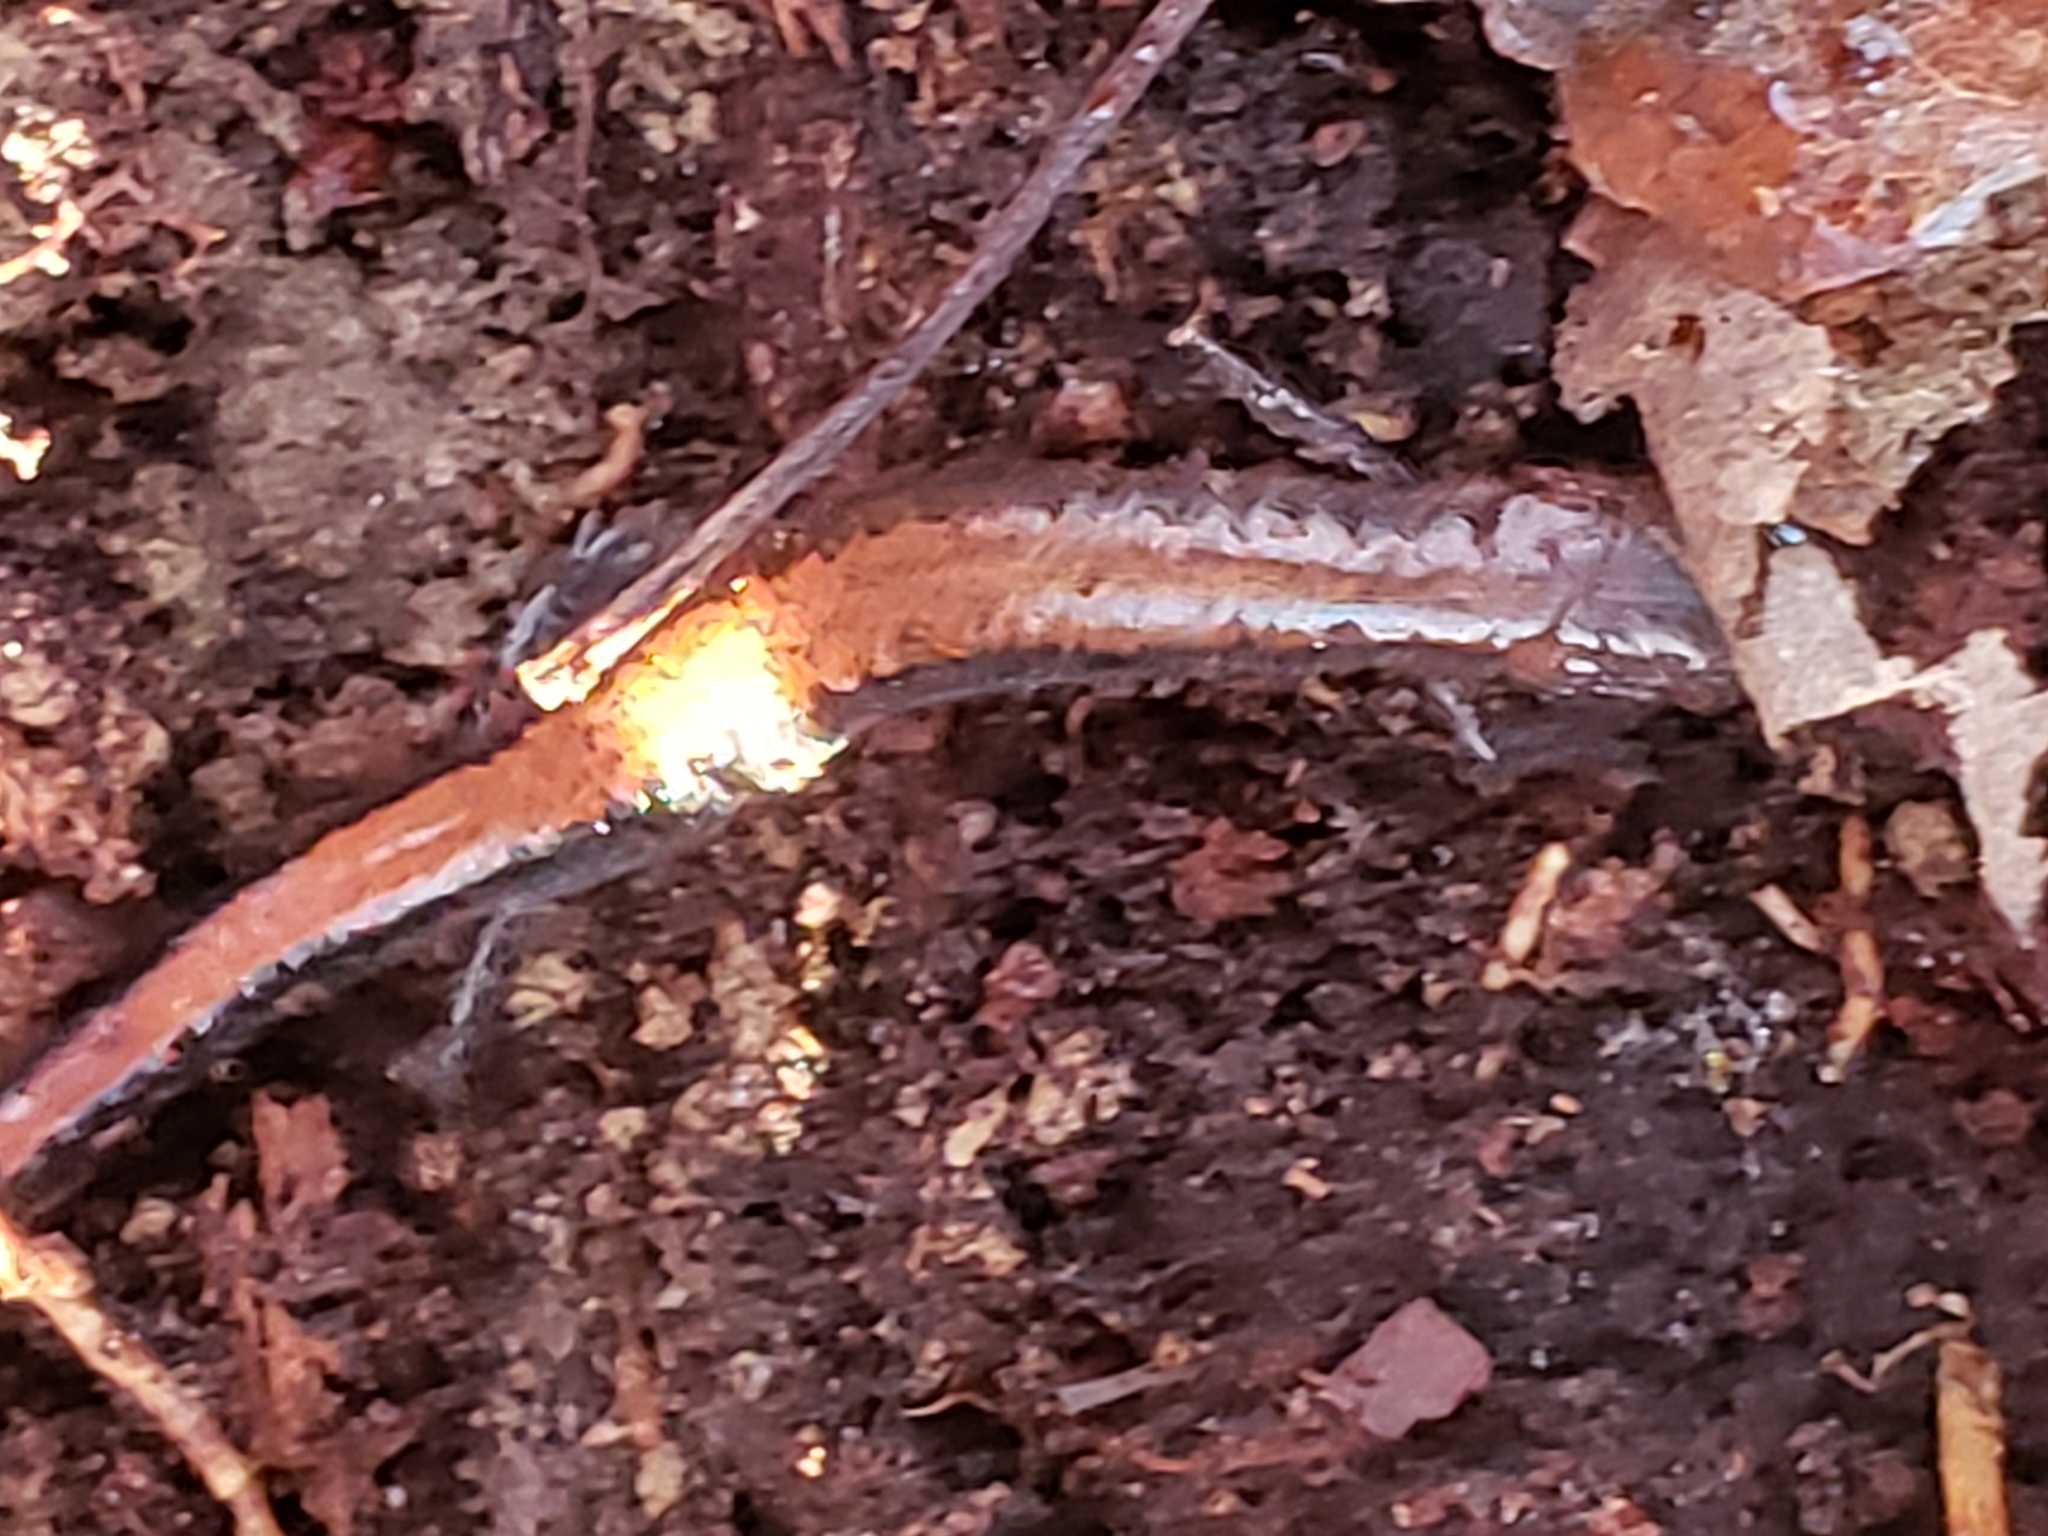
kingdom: Animalia
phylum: Chordata
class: Amphibia
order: Caudata
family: Plethodontidae
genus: Plethodon
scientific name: Plethodon cinereus
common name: Redback salamander
